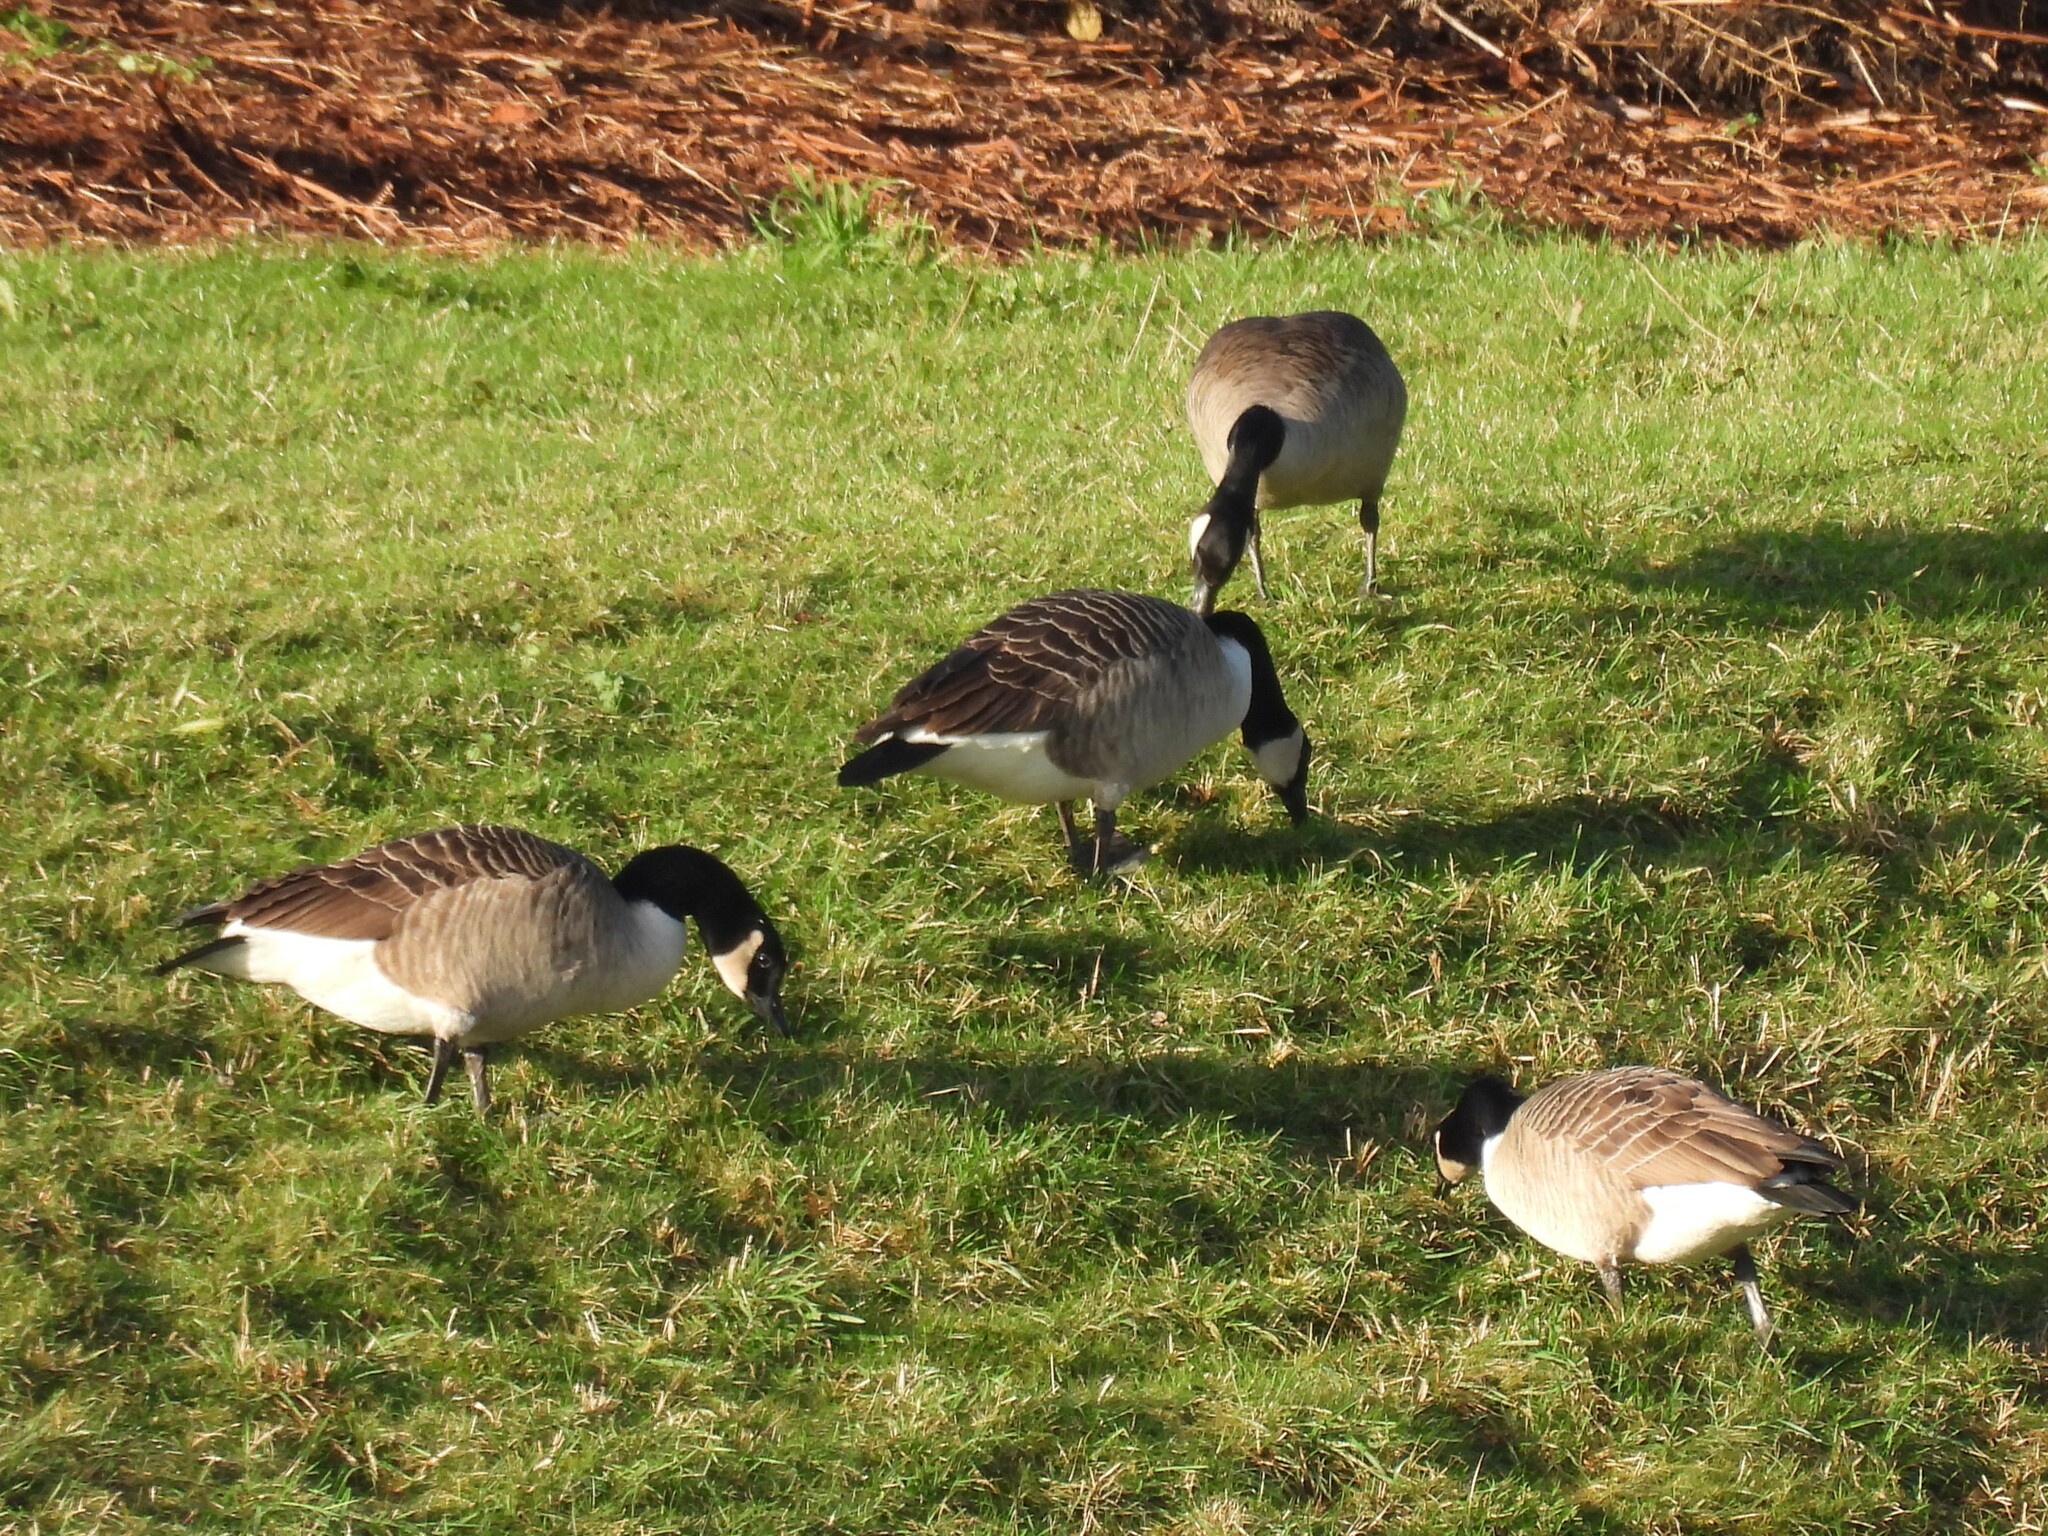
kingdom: Animalia
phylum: Chordata
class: Aves
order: Anseriformes
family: Anatidae
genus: Branta
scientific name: Branta canadensis
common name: Canada goose
